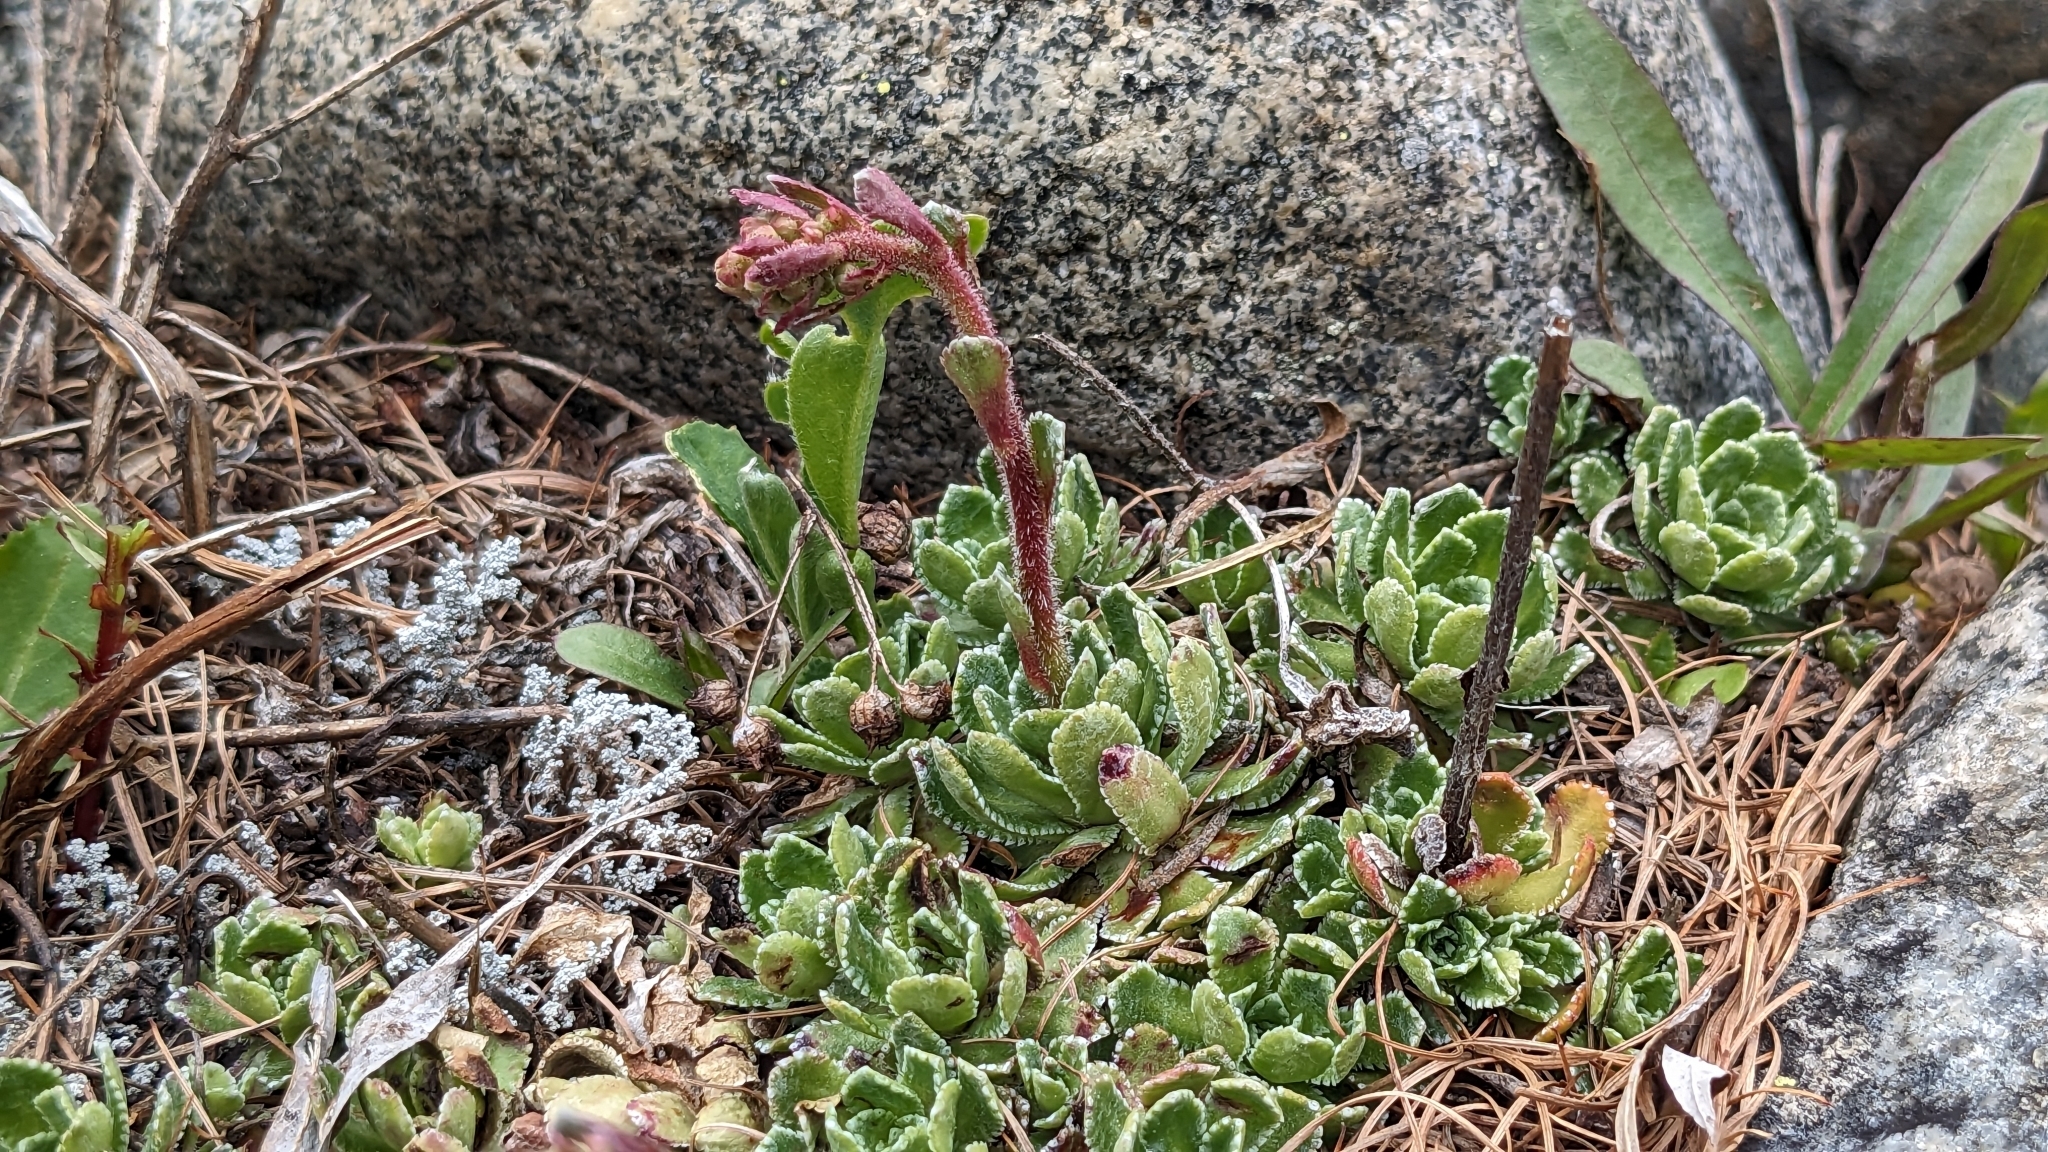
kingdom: Plantae
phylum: Tracheophyta
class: Magnoliopsida
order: Saxifragales
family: Saxifragaceae
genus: Saxifraga
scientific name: Saxifraga paniculata
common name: Livelong saxifrage
